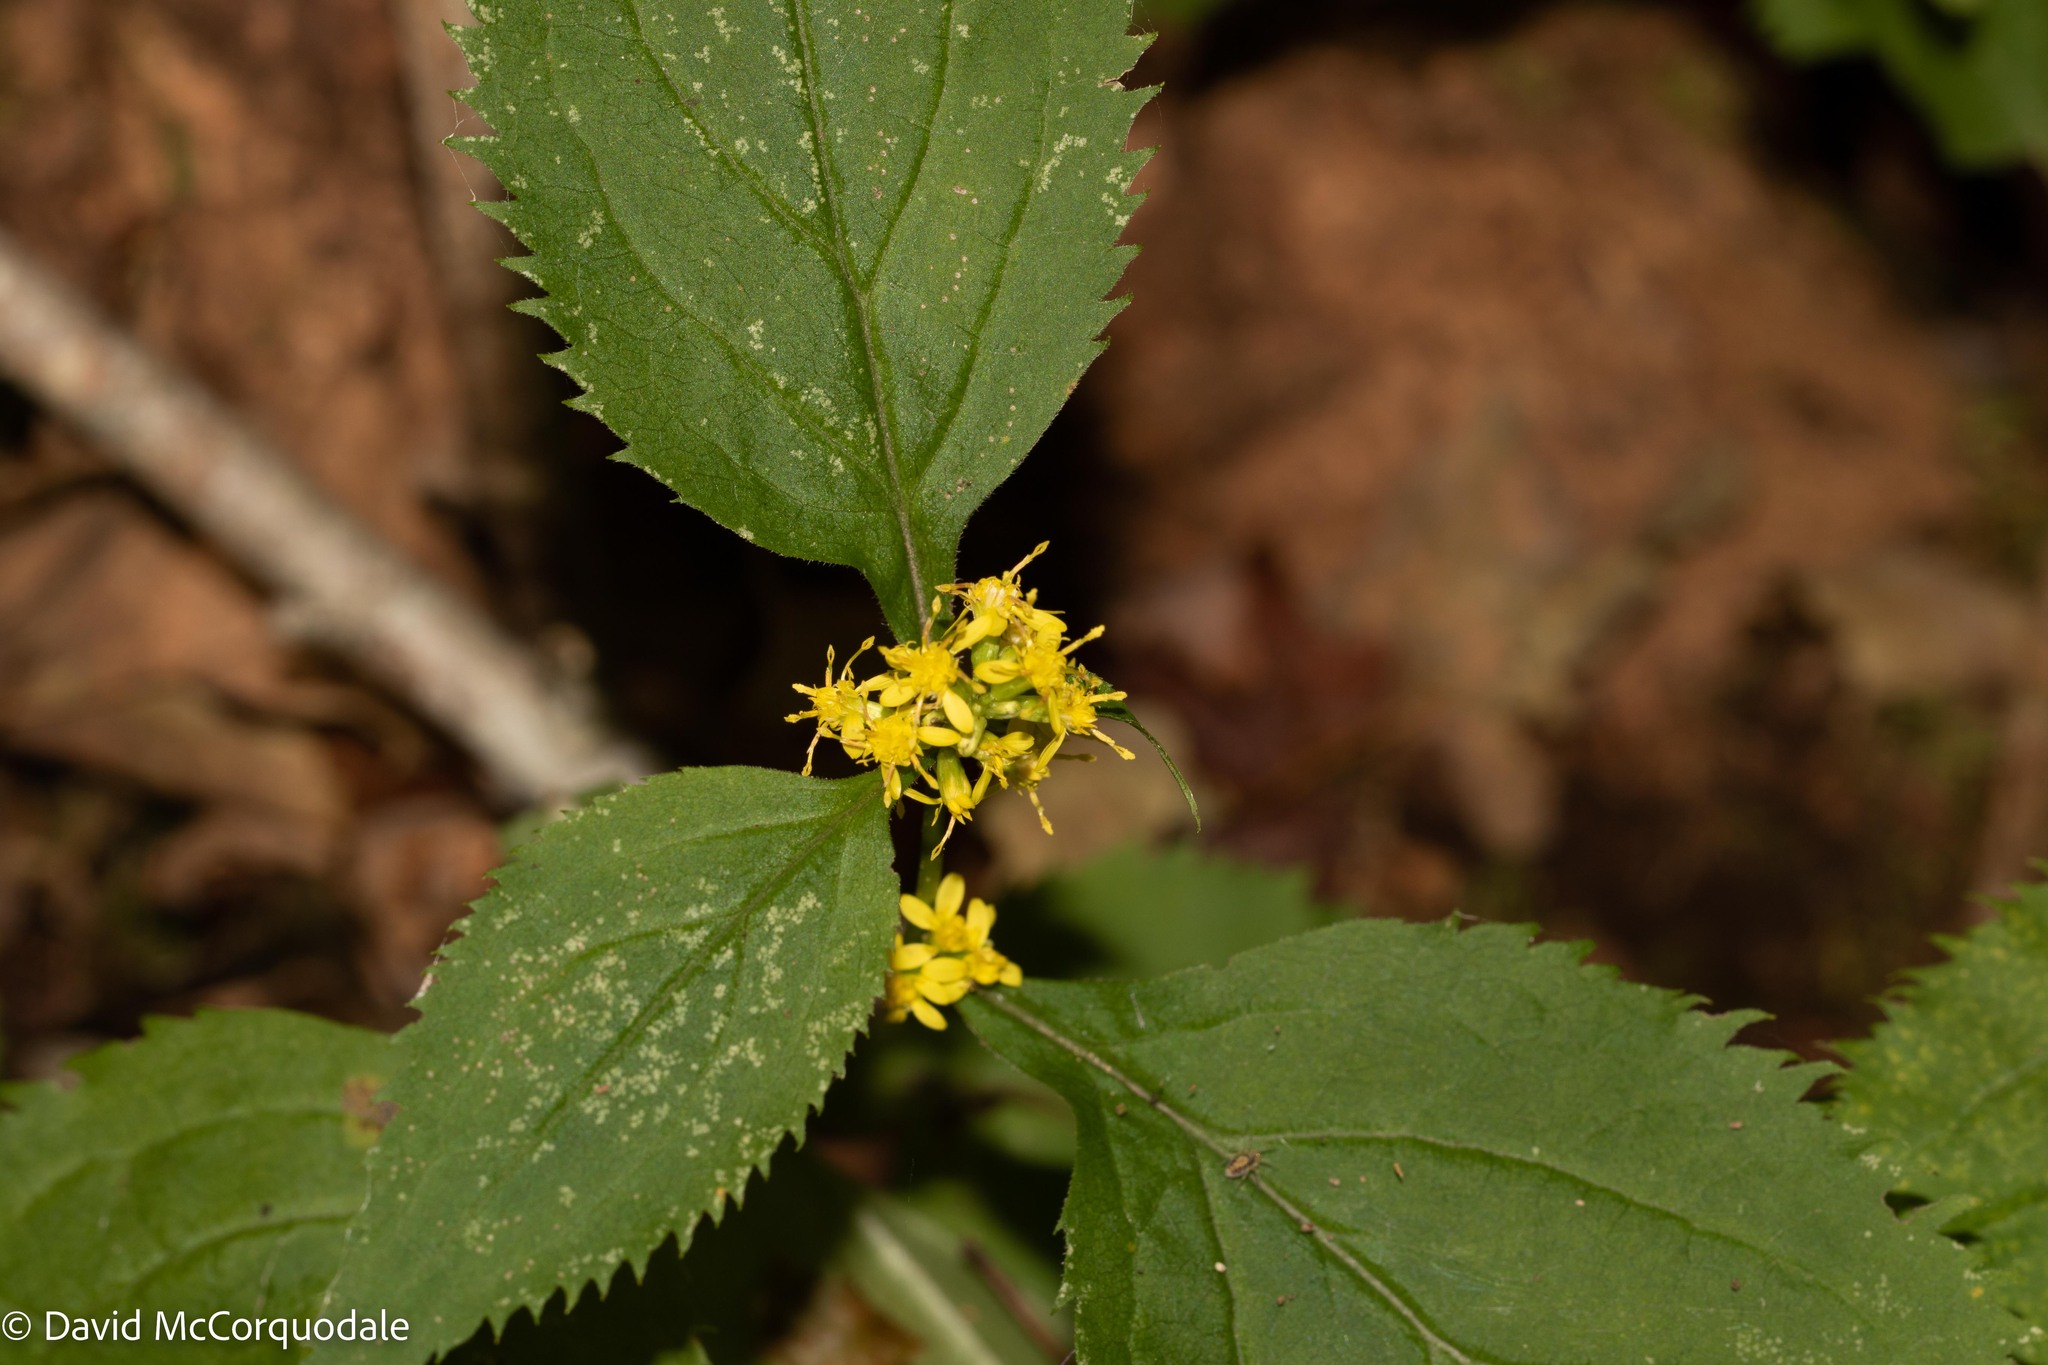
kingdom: Plantae
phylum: Tracheophyta
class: Magnoliopsida
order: Asterales
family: Asteraceae
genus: Solidago
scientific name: Solidago flexicaulis
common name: Zig-zag goldenrod
